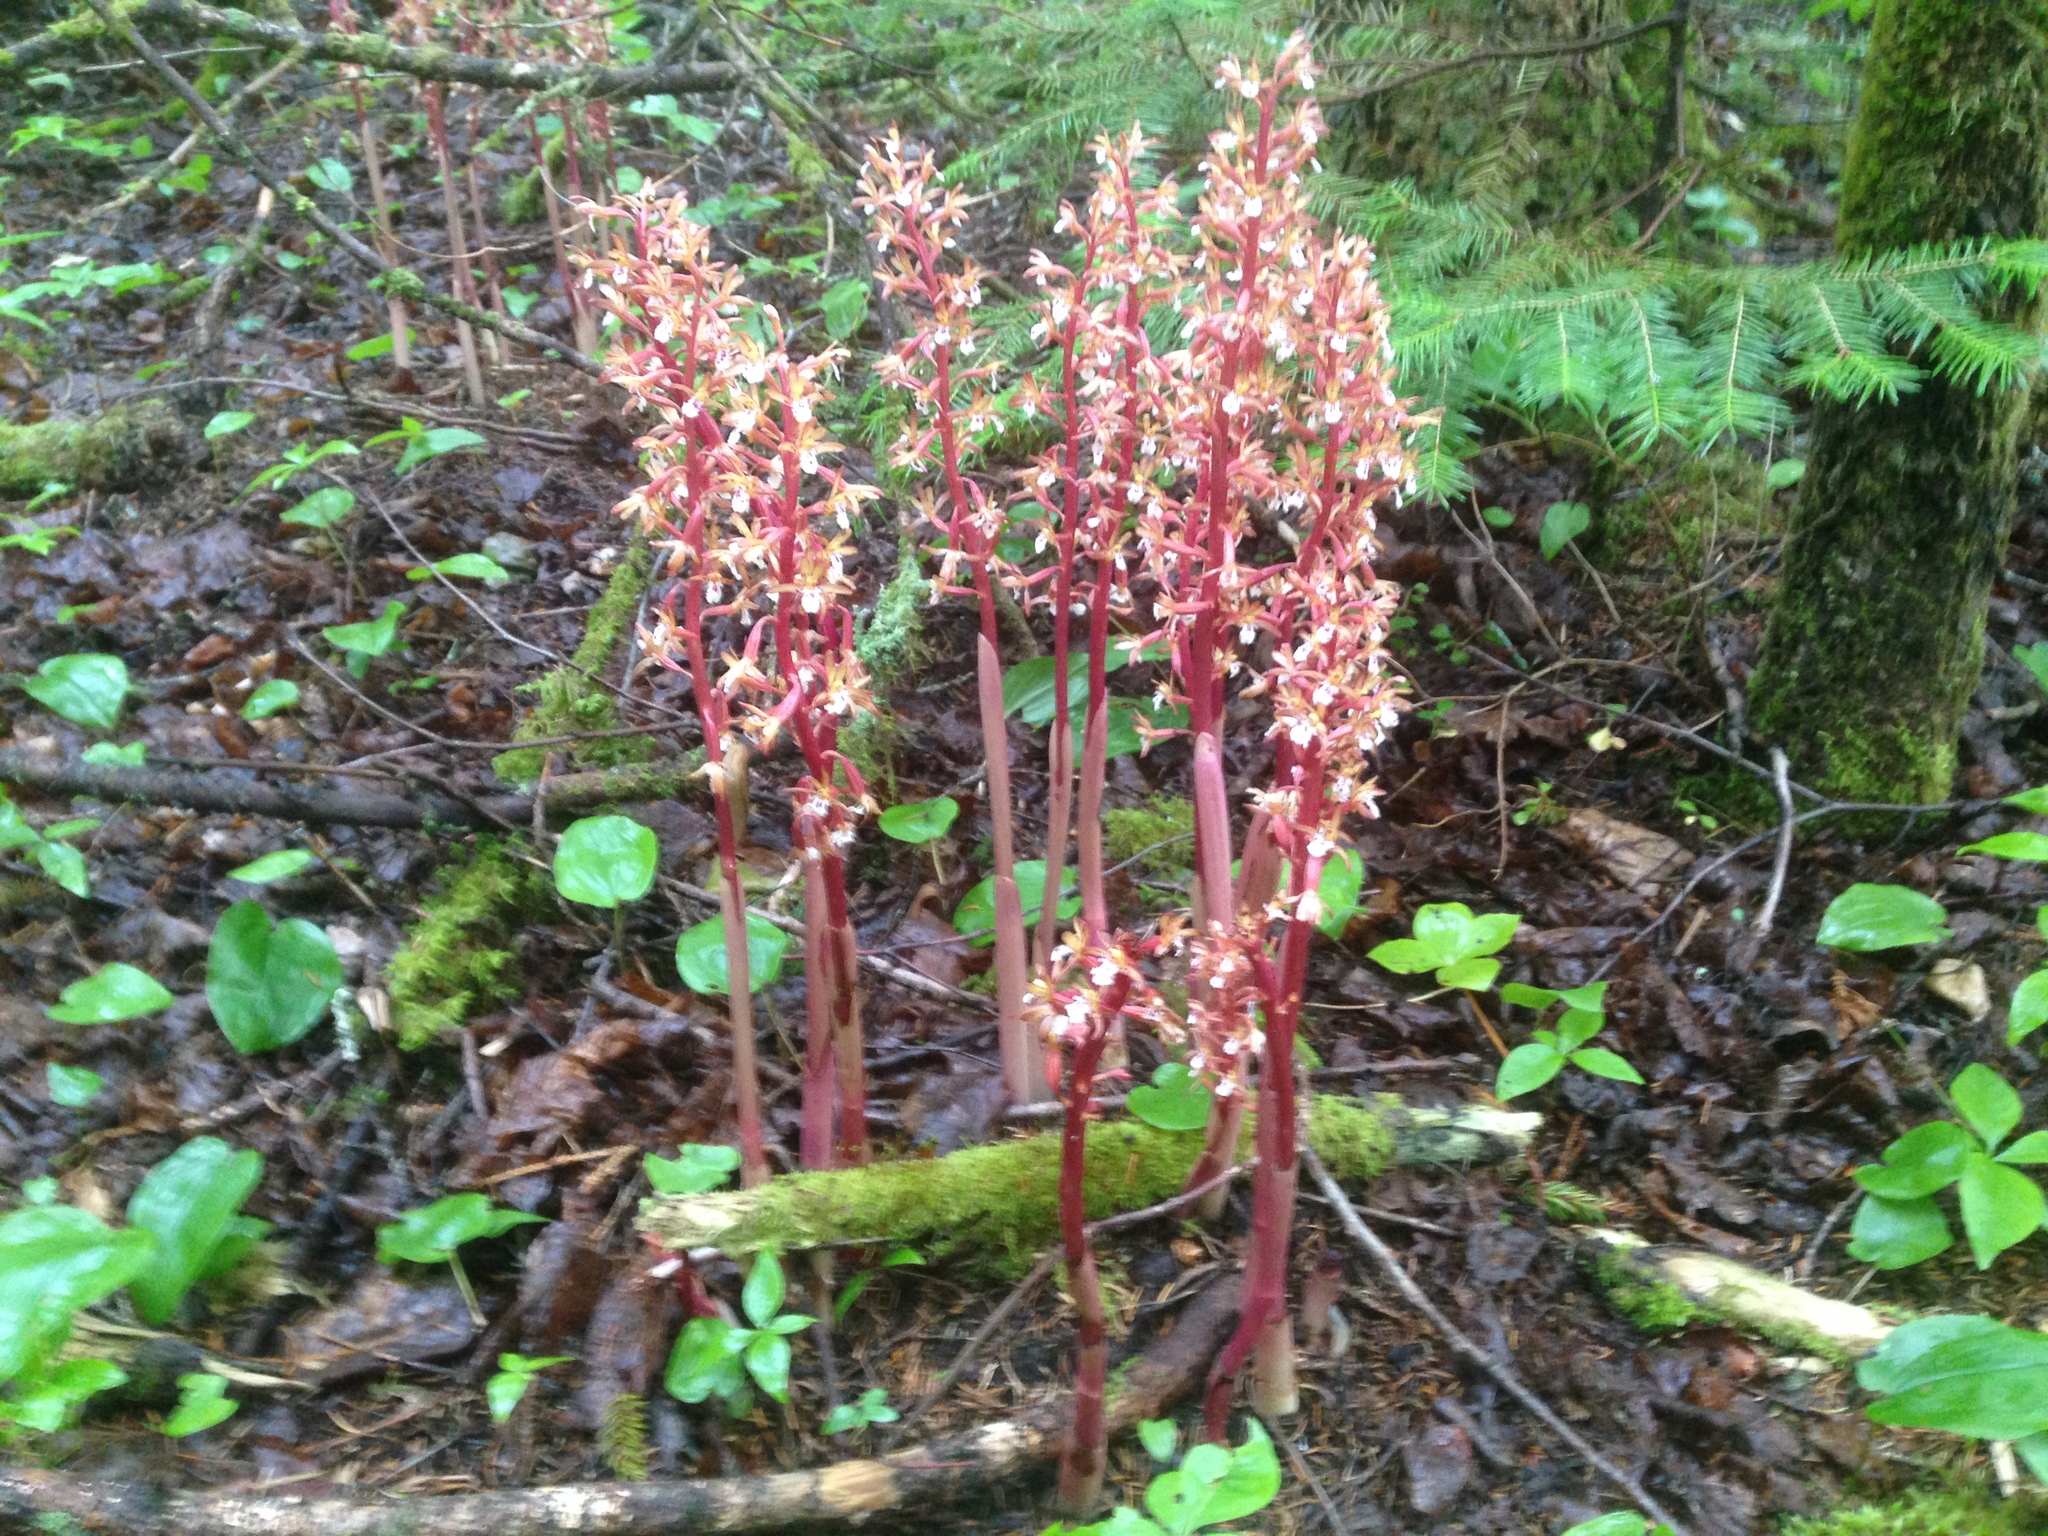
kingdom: Plantae
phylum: Tracheophyta
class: Liliopsida
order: Asparagales
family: Orchidaceae
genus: Corallorhiza
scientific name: Corallorhiza maculata
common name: Spotted coralroot
